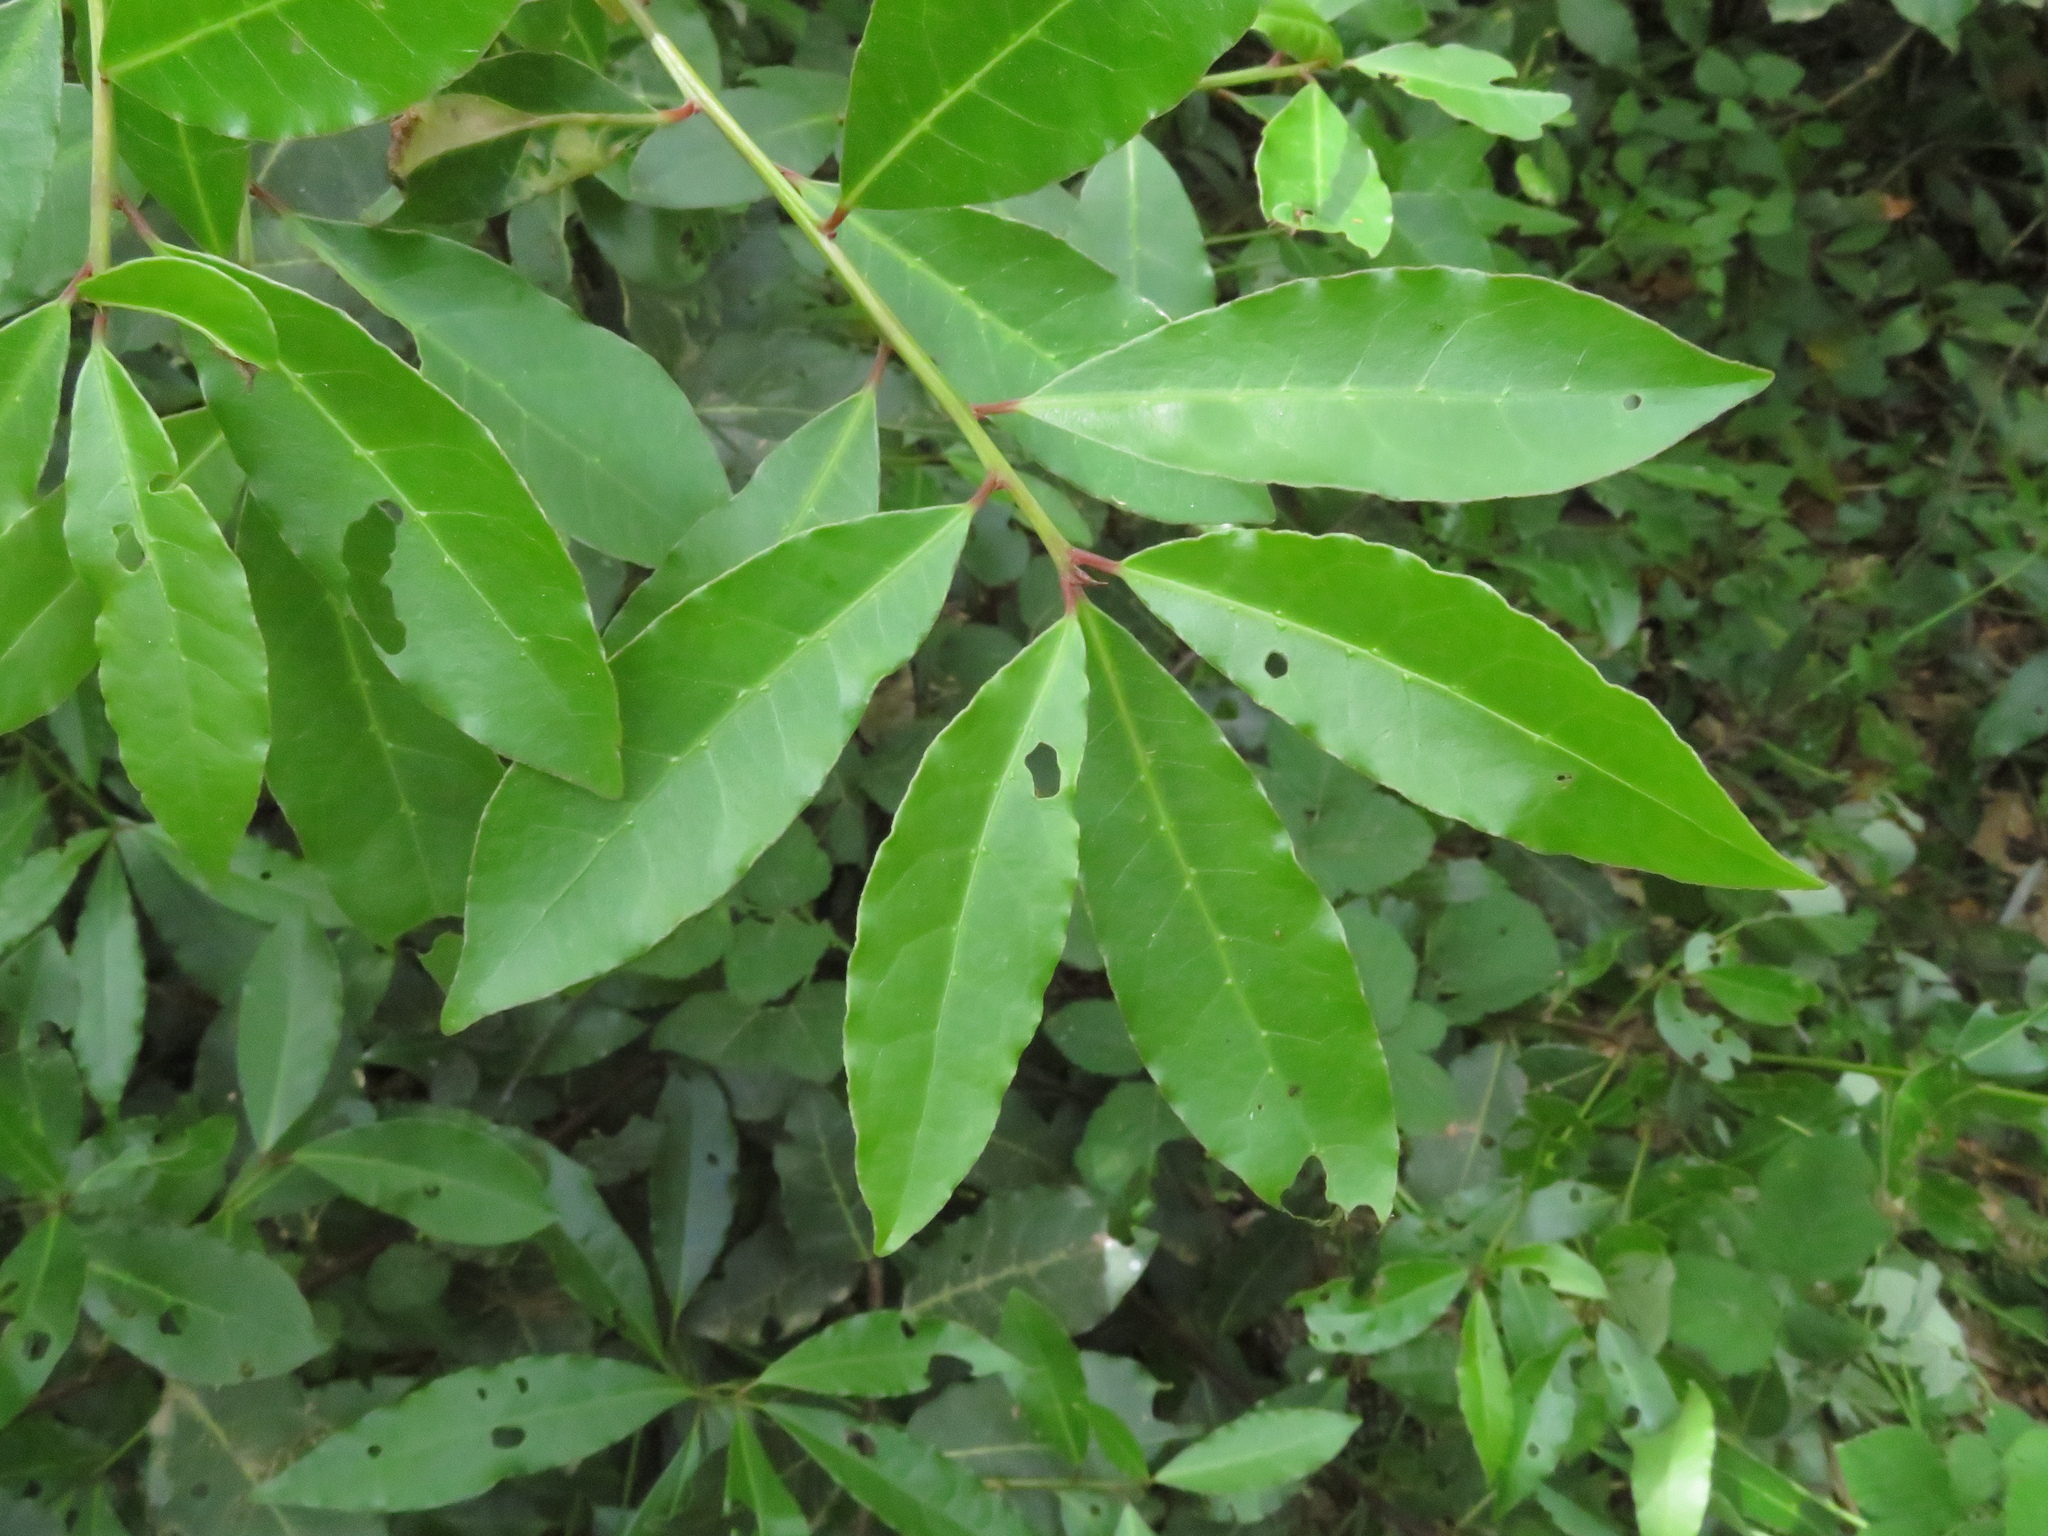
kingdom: Plantae
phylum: Tracheophyta
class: Magnoliopsida
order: Laurales
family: Lauraceae
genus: Laurus
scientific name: Laurus nobilis
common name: Bay
